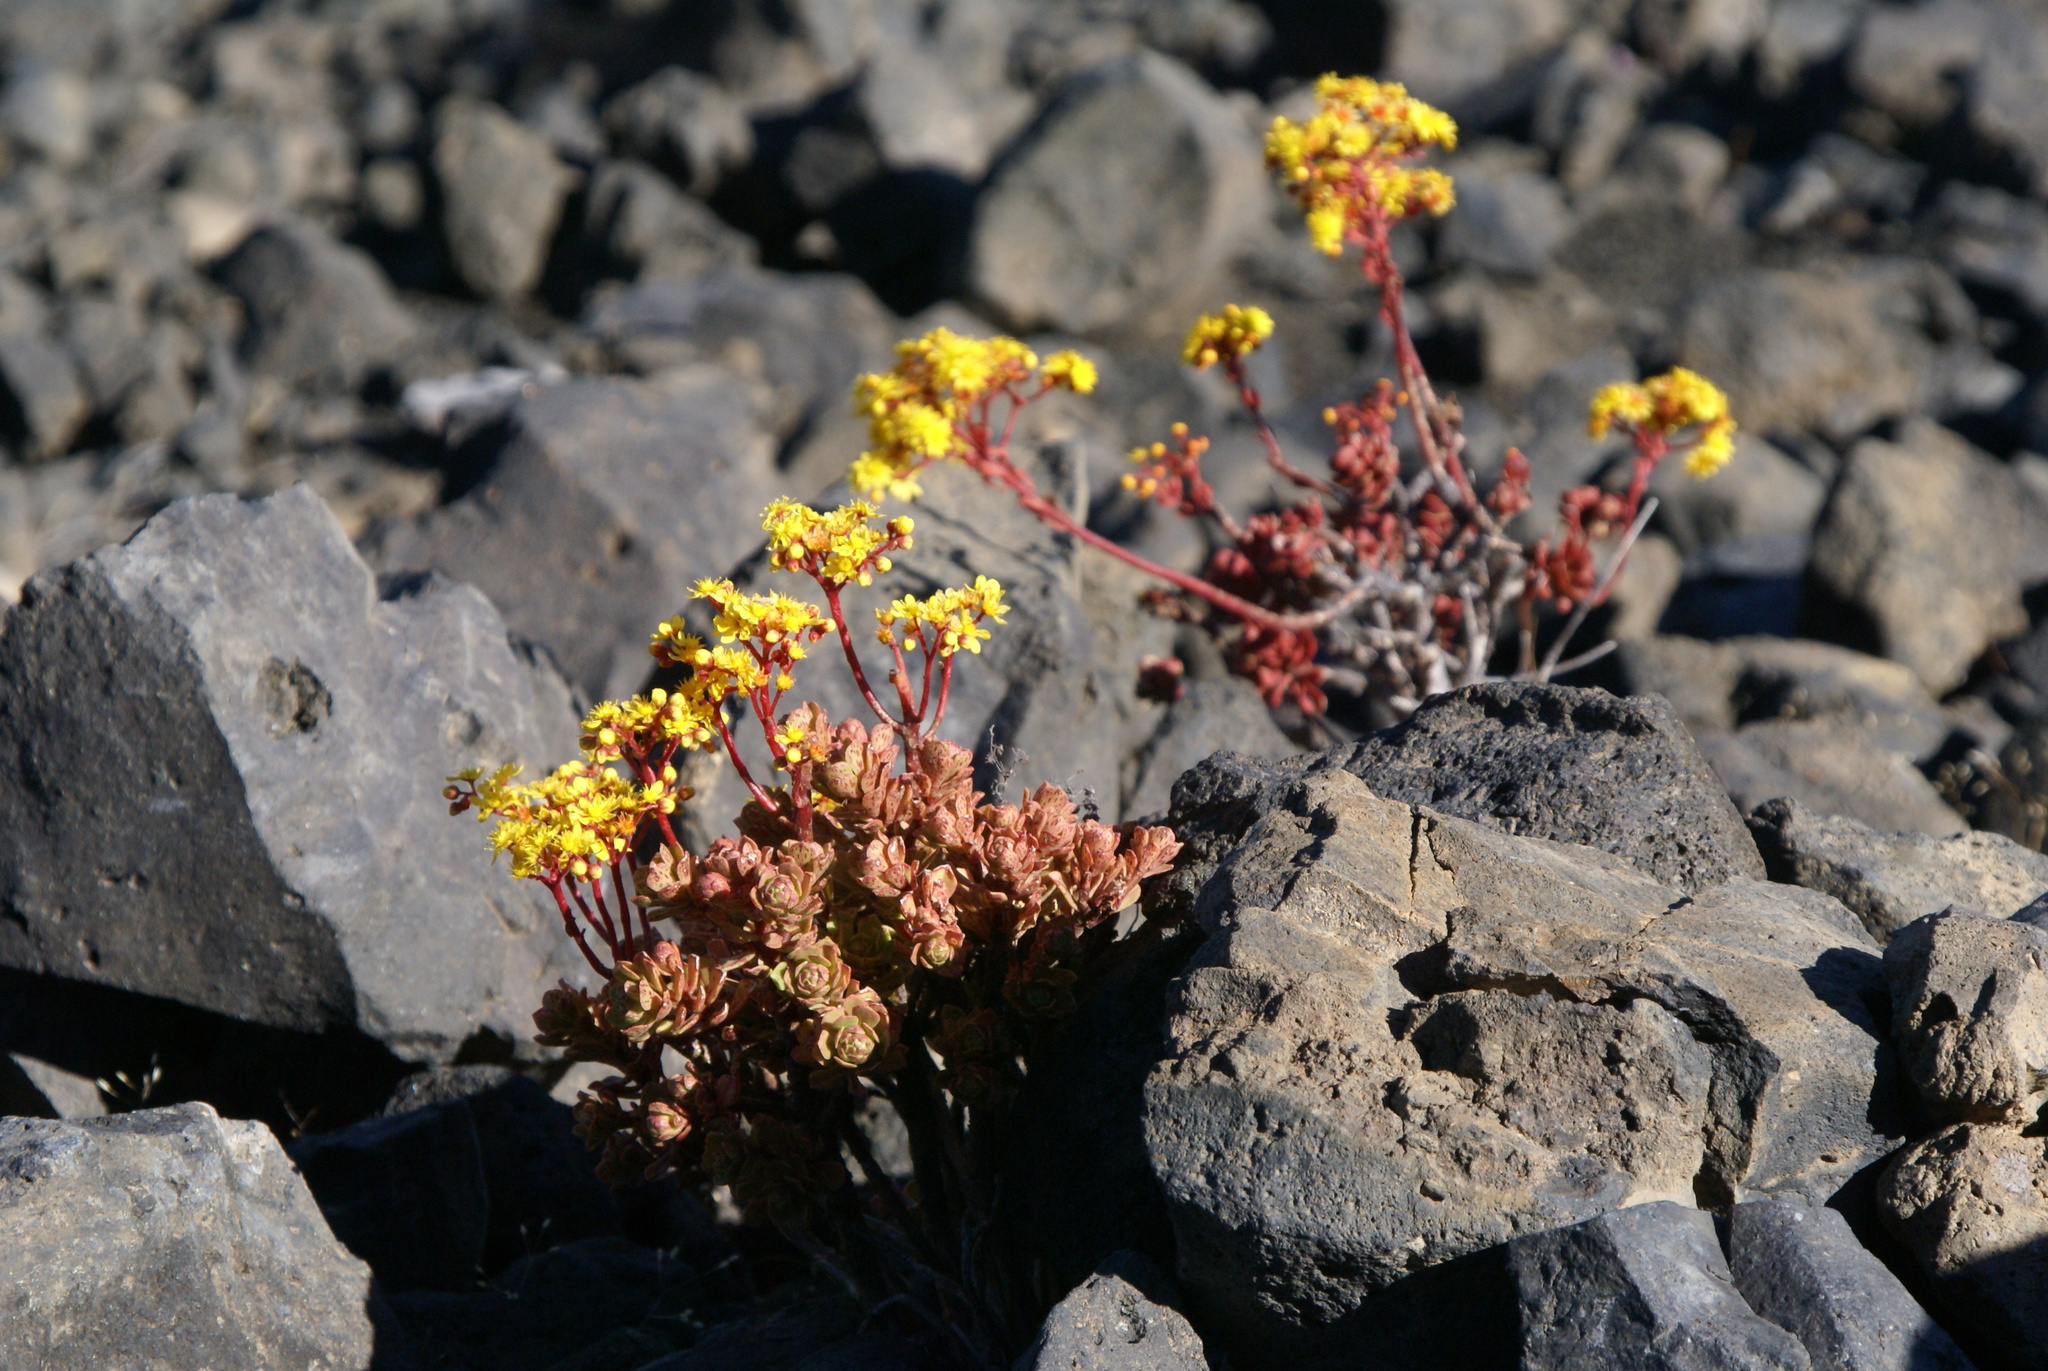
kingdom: Plantae
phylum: Tracheophyta
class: Magnoliopsida
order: Saxifragales
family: Crassulaceae
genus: Aeonium
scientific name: Aeonium spathulatum
